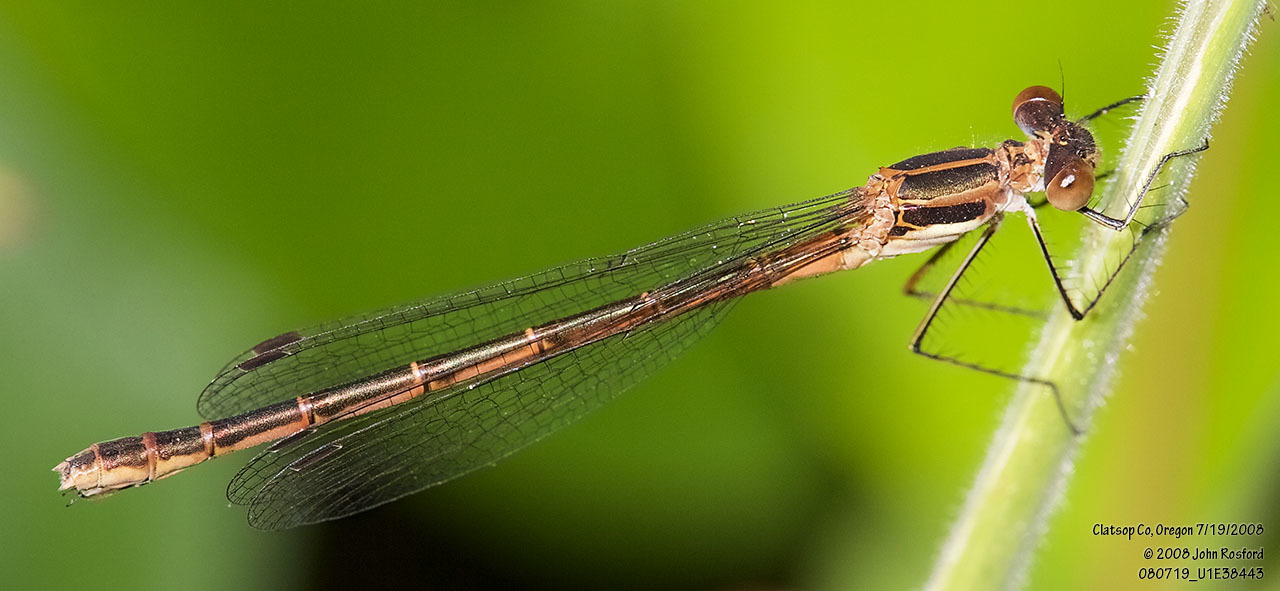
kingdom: Animalia
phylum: Arthropoda
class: Insecta
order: Odonata
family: Lestidae
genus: Lestes
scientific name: Lestes disjunctus
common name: Northern spreadwing
